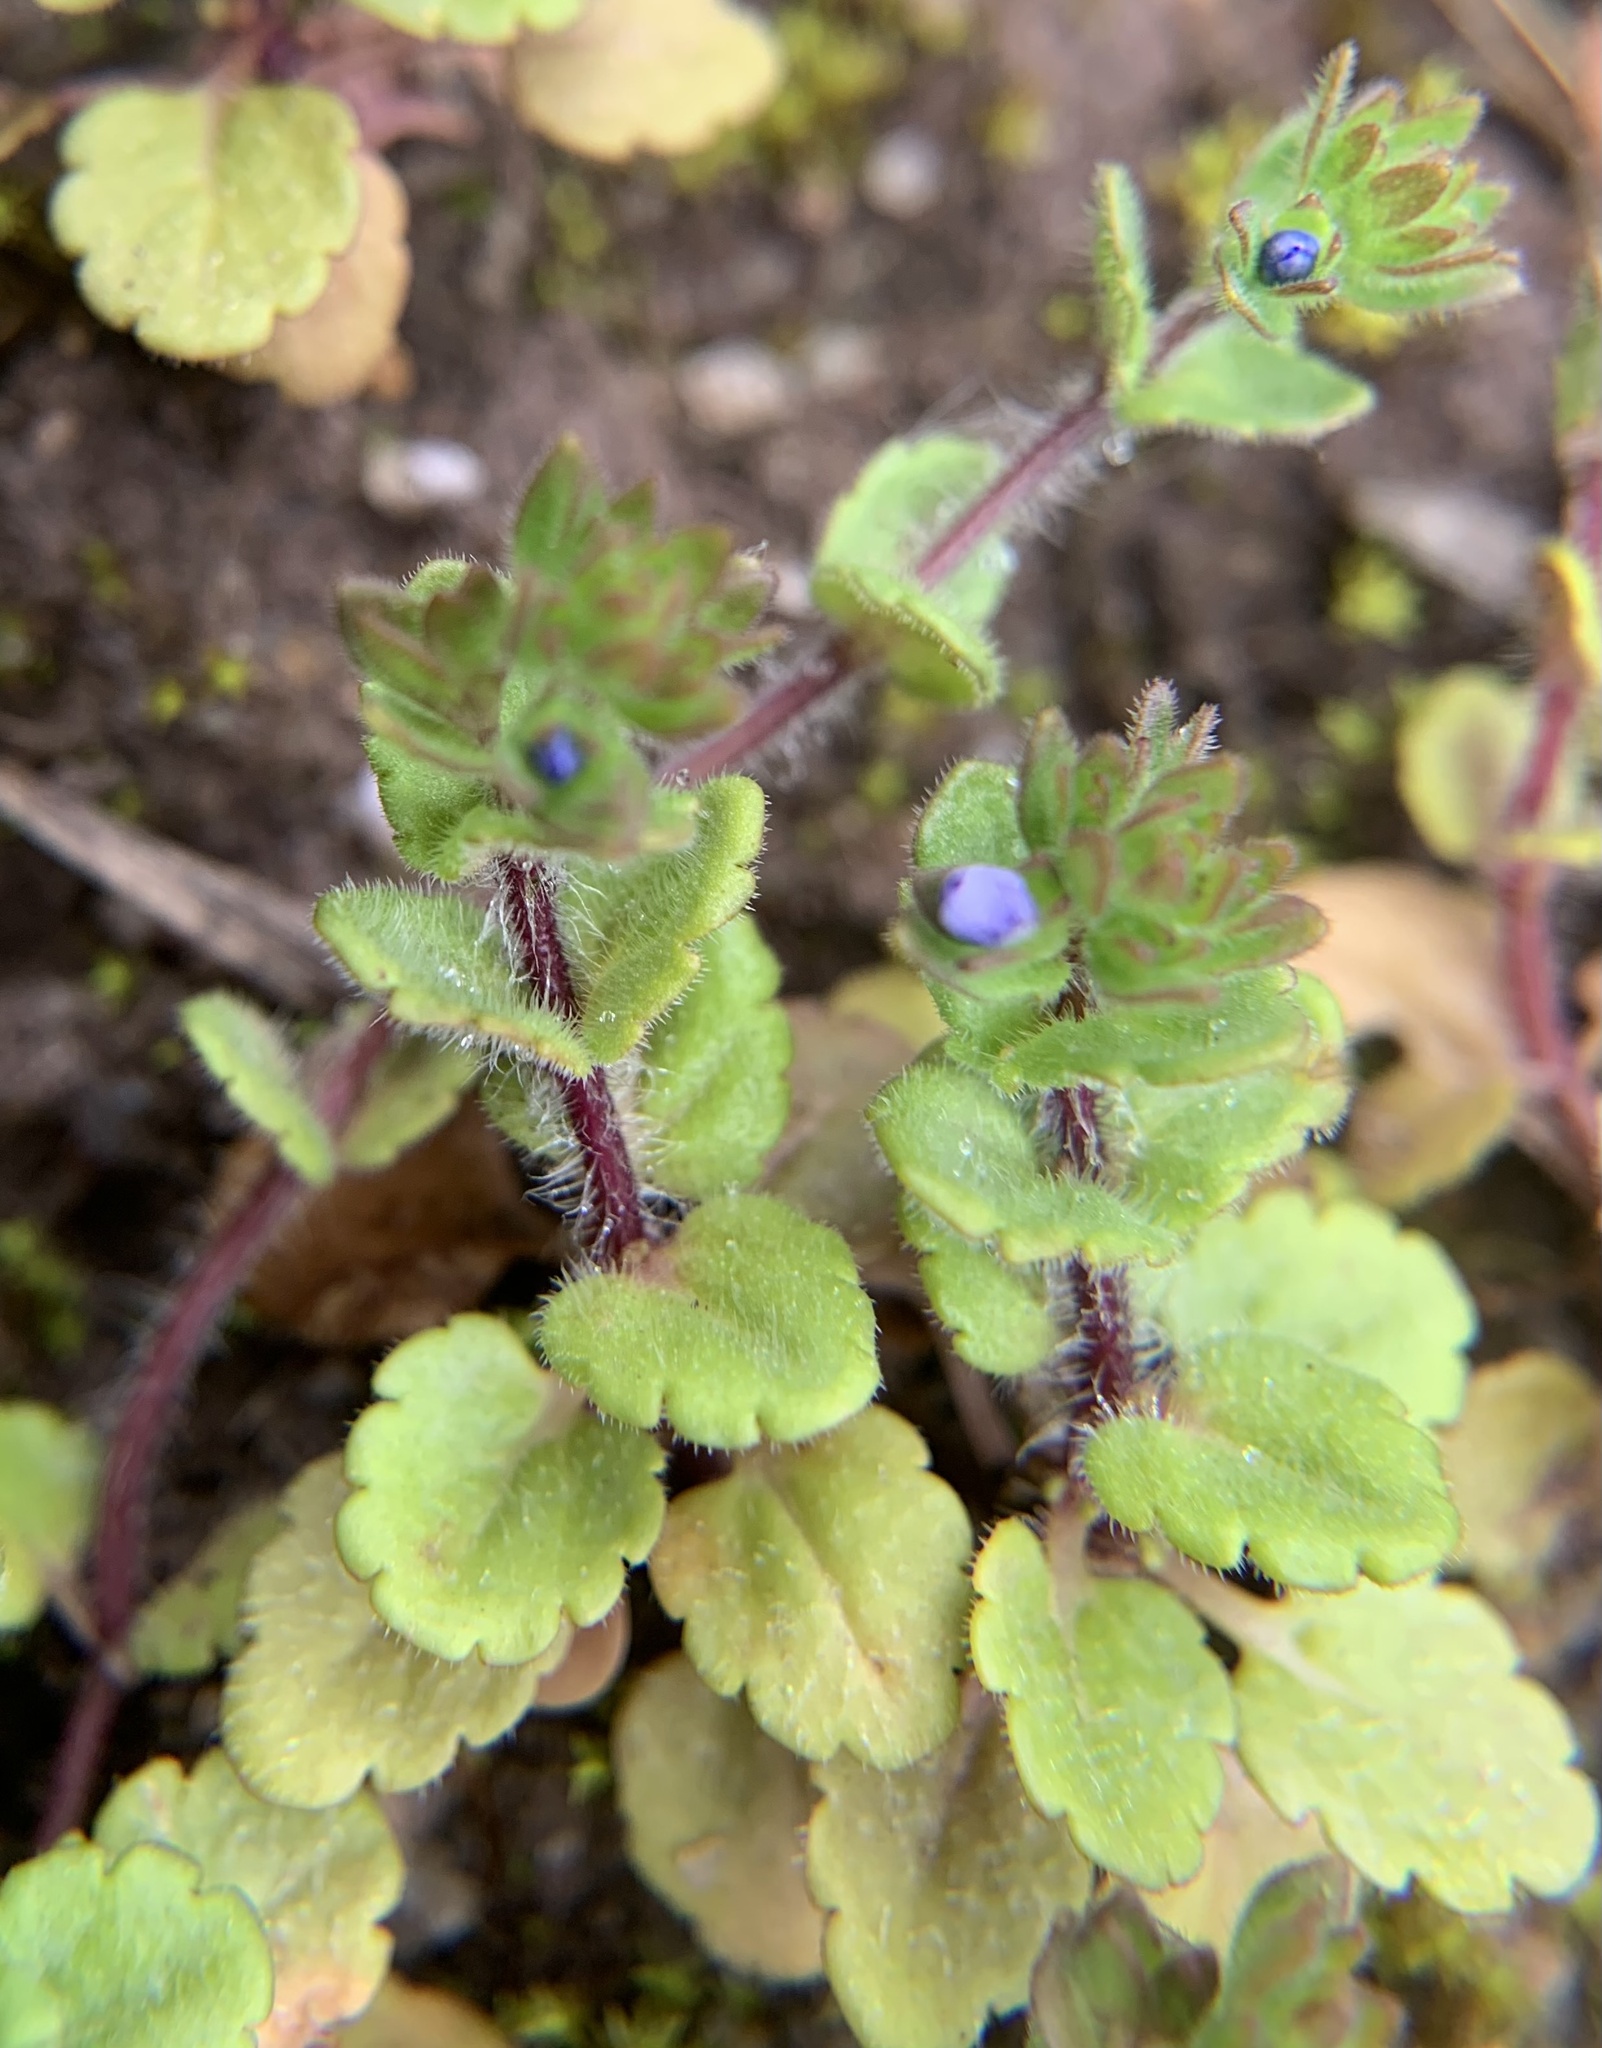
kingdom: Plantae
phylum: Tracheophyta
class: Magnoliopsida
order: Lamiales
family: Plantaginaceae
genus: Veronica
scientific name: Veronica arvensis
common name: Corn speedwell
